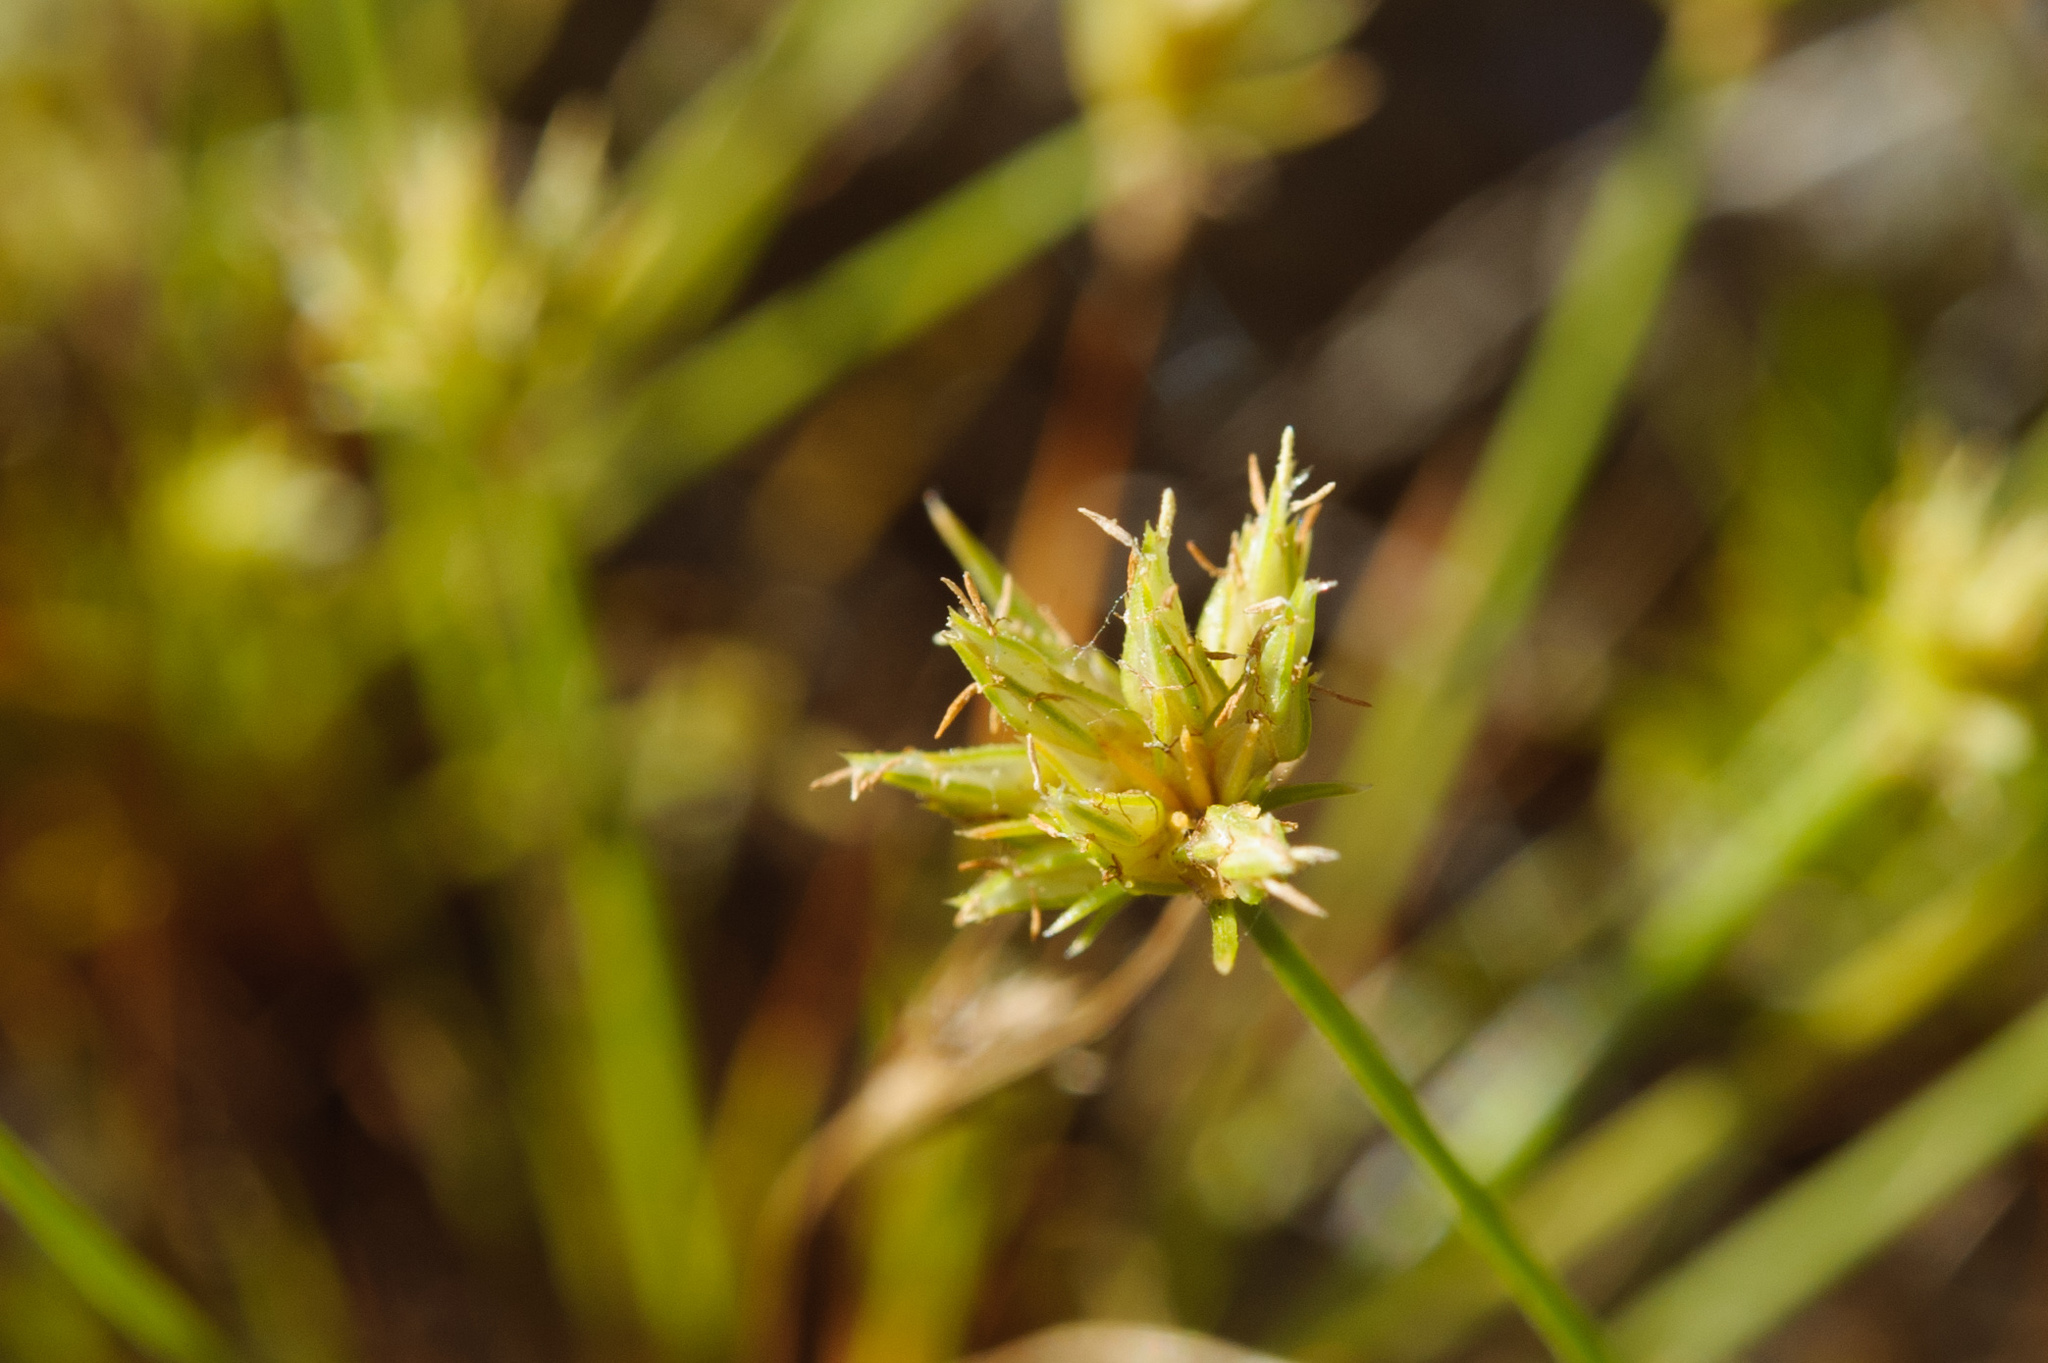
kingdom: Plantae
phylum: Tracheophyta
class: Liliopsida
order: Poales
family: Cyperaceae
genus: Bulbostylis
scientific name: Bulbostylis barbata
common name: Watergrass
